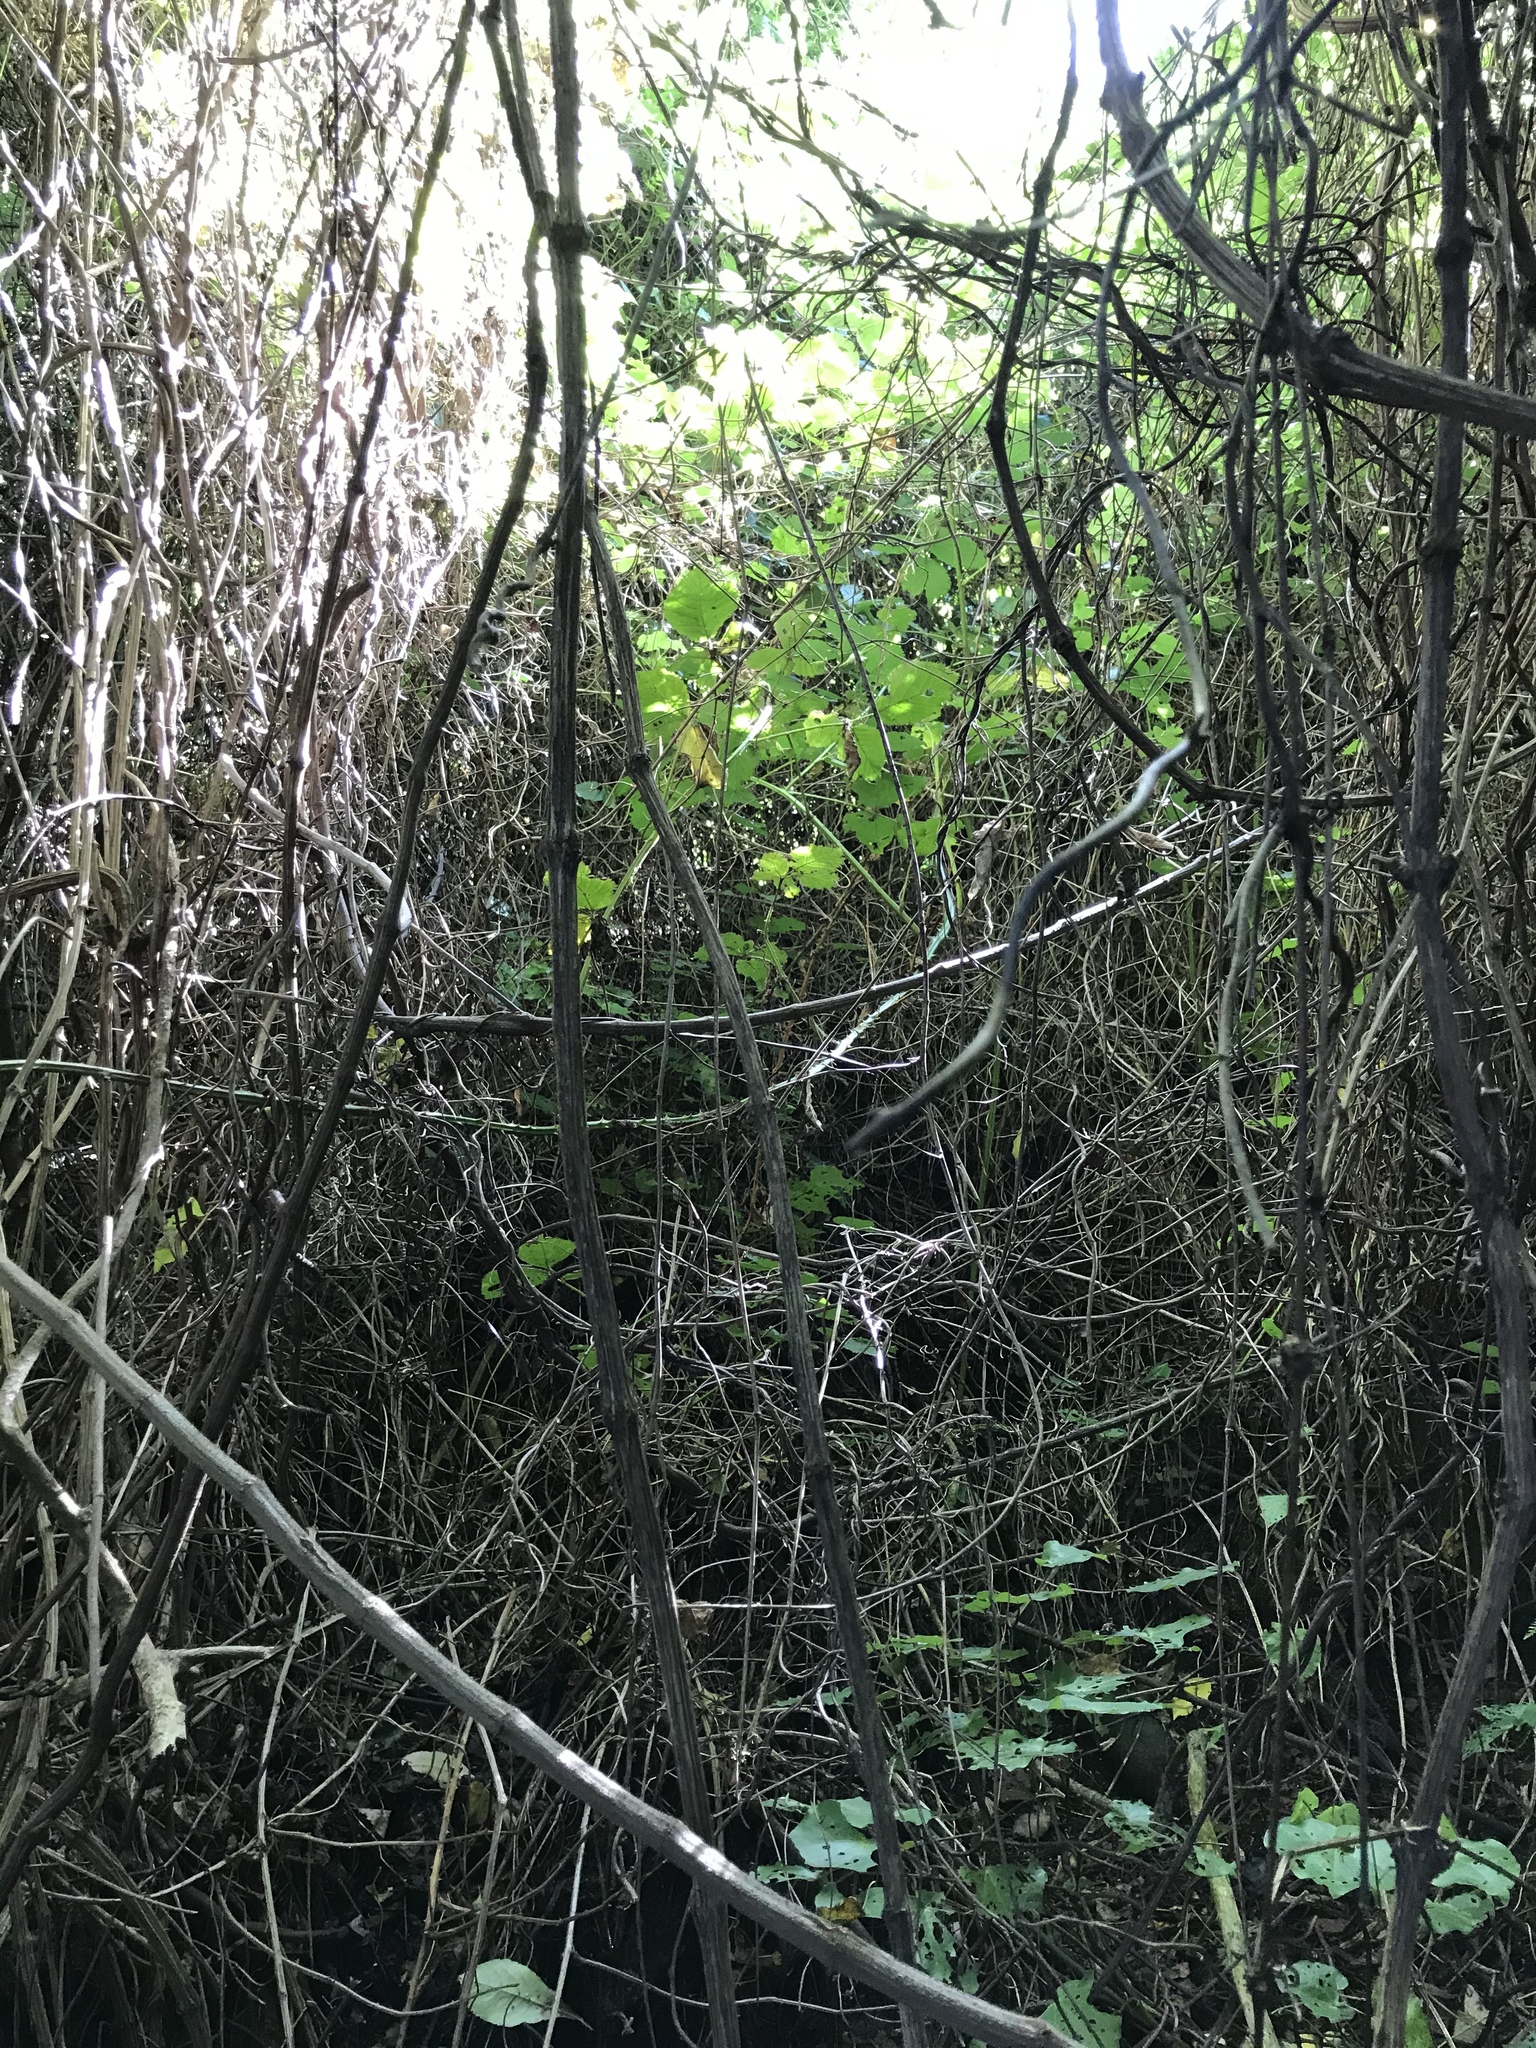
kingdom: Plantae
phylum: Tracheophyta
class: Magnoliopsida
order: Ranunculales
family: Ranunculaceae
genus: Clematis
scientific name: Clematis vitalba
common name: Evergreen clematis
